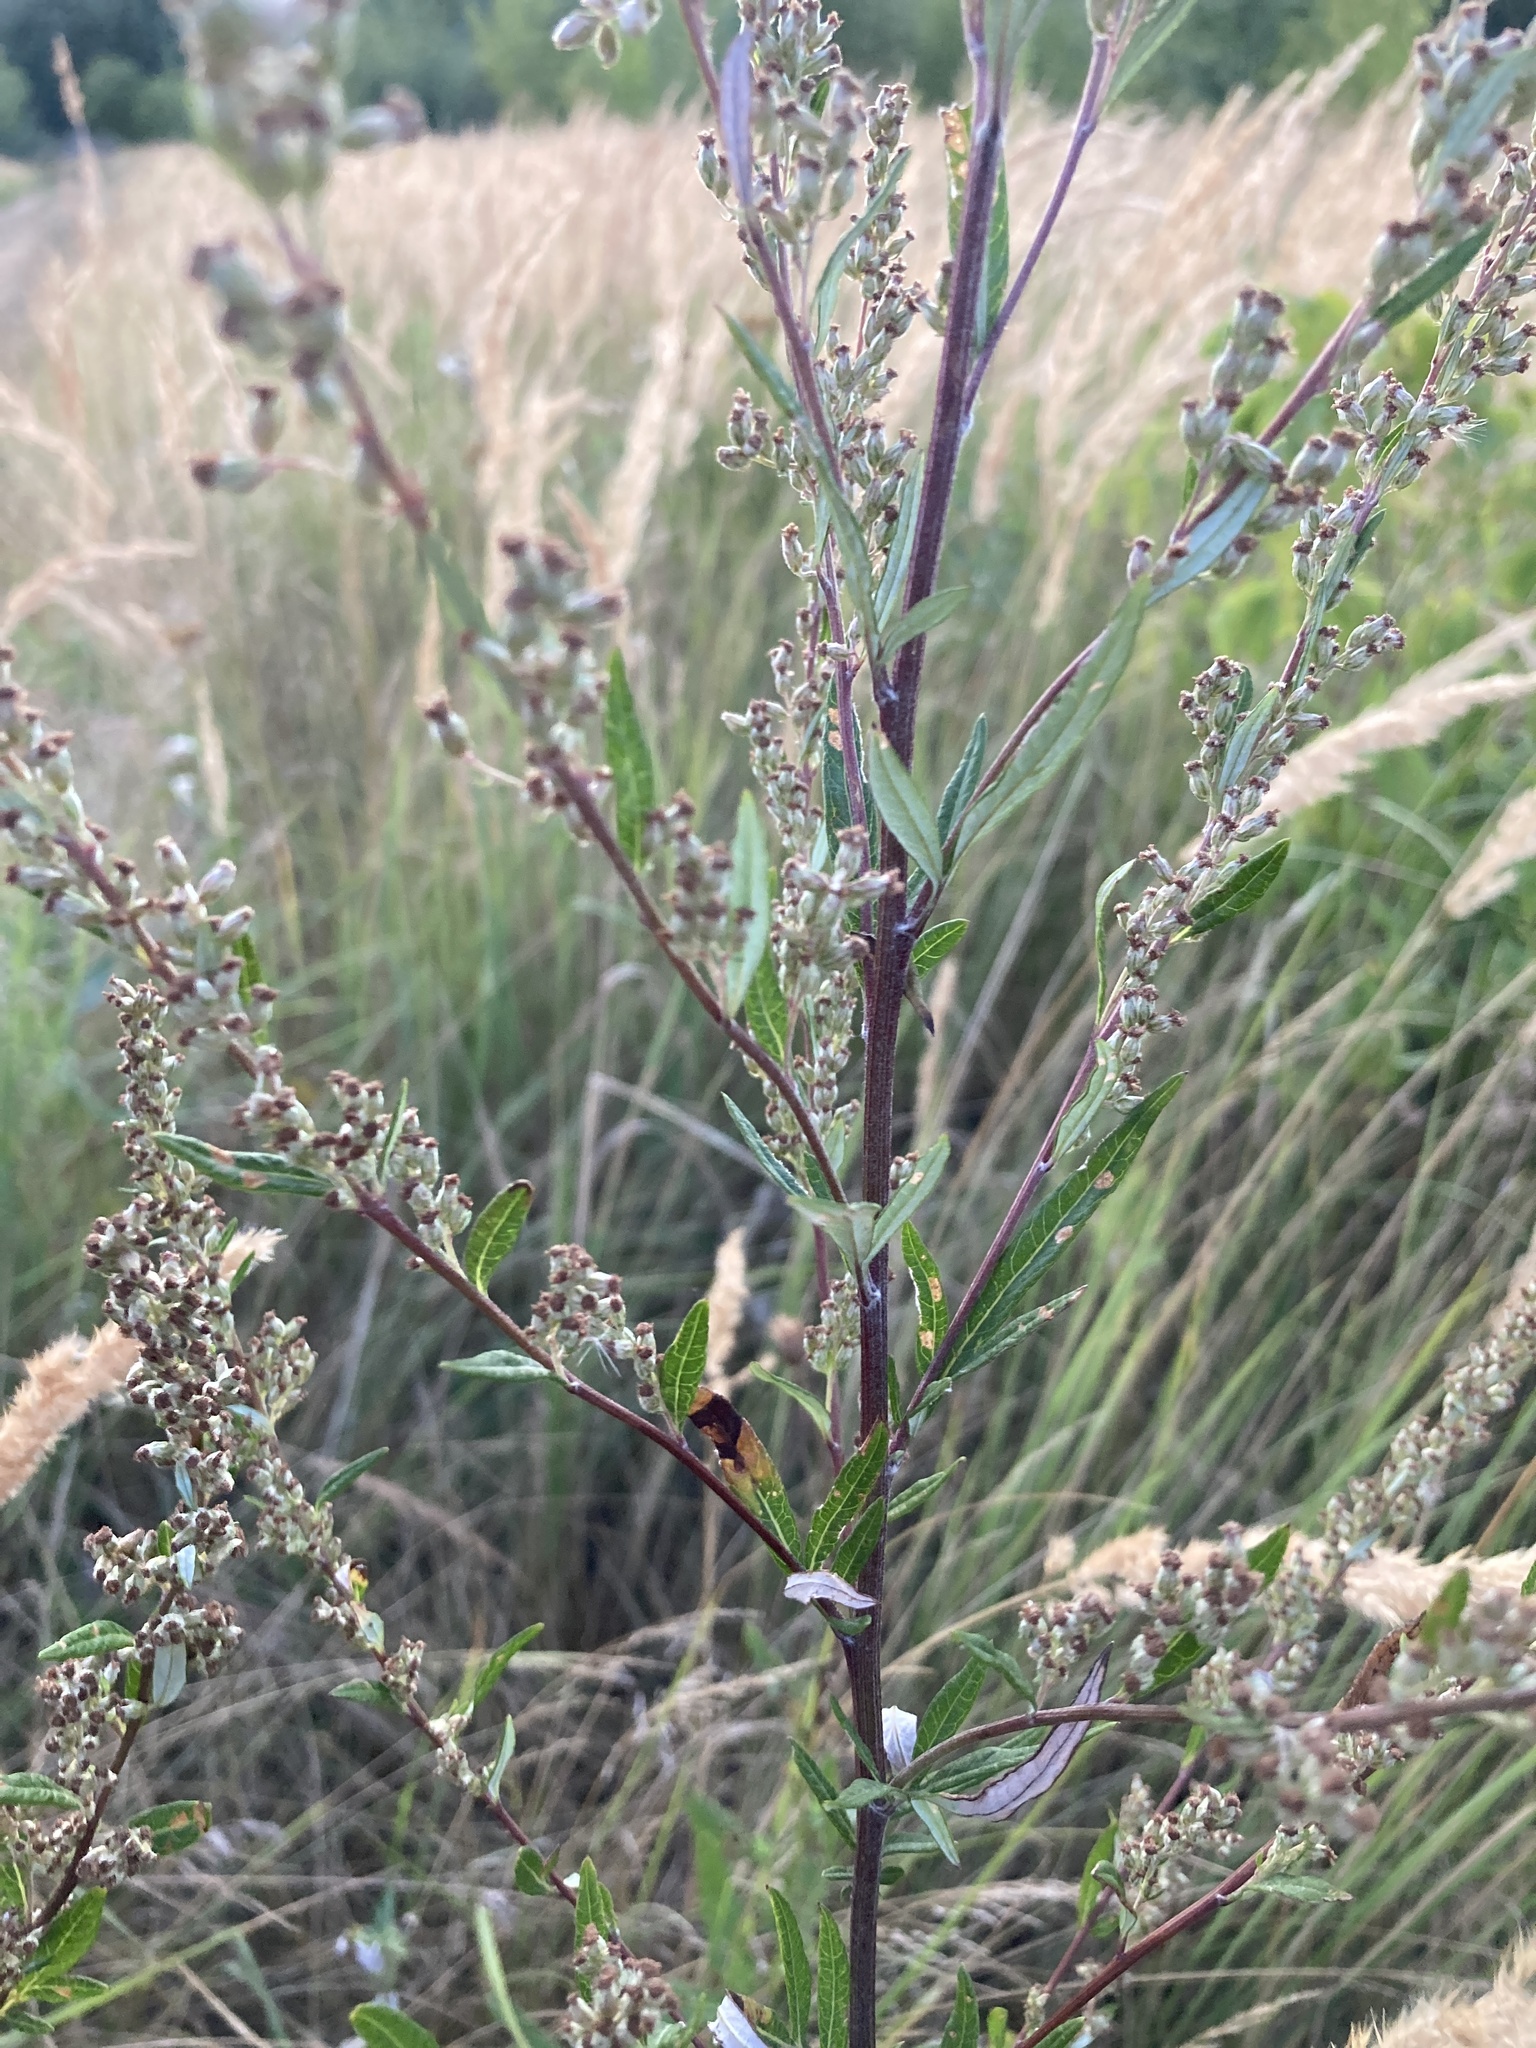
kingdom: Plantae
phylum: Tracheophyta
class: Magnoliopsida
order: Asterales
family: Asteraceae
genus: Artemisia
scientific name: Artemisia vulgaris
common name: Mugwort
